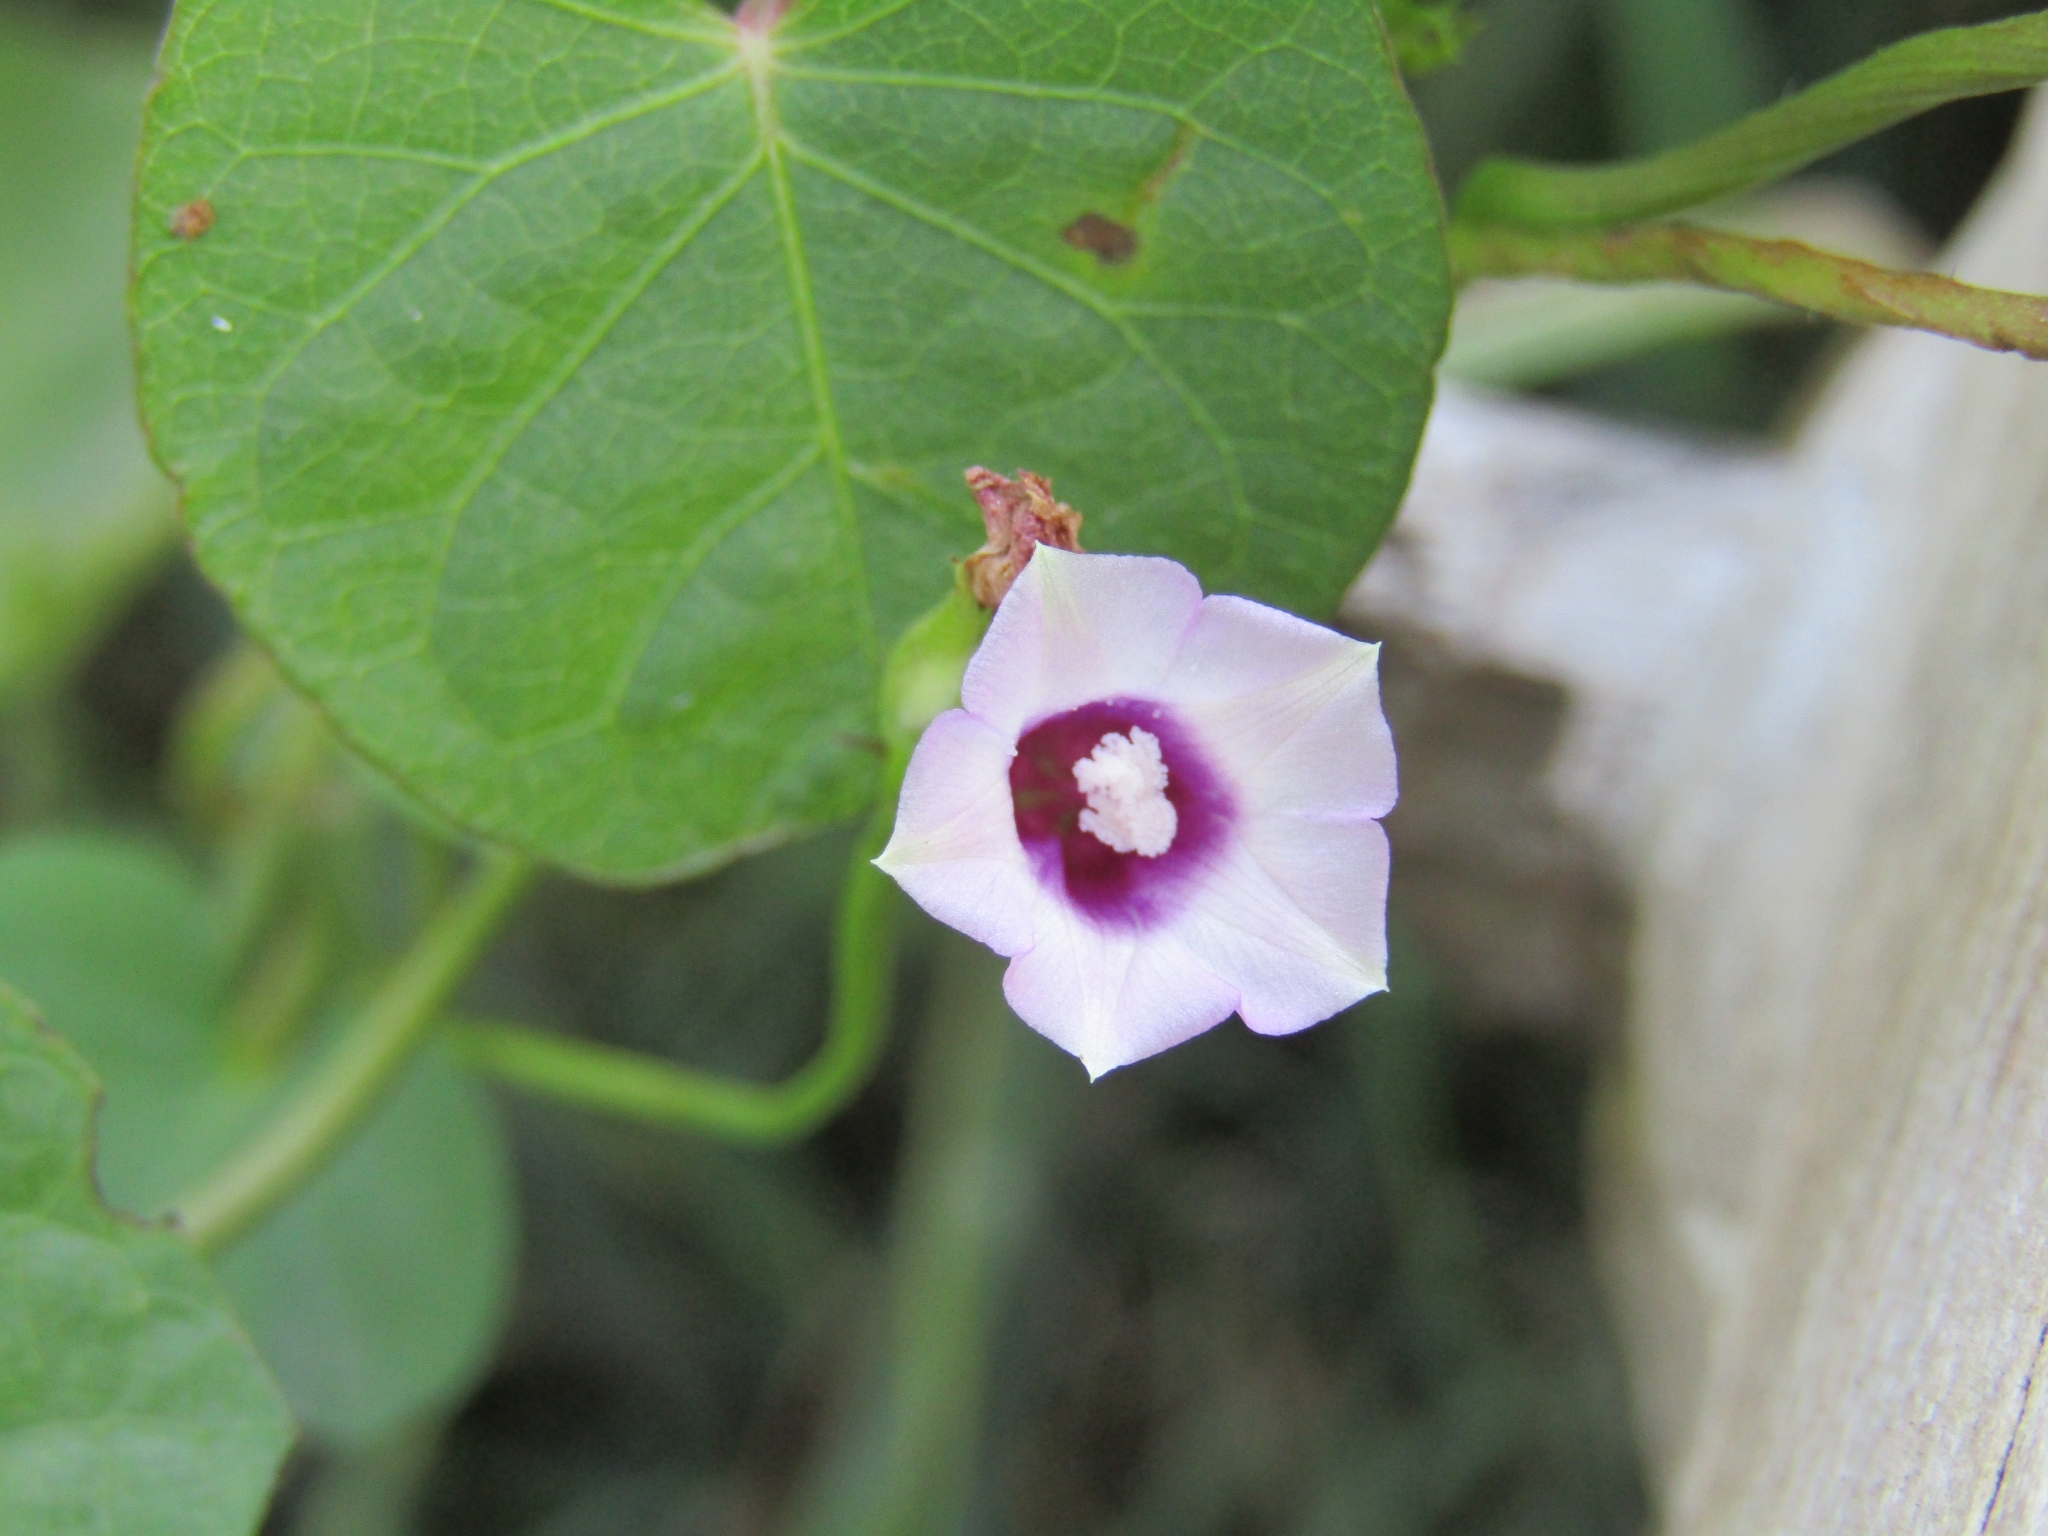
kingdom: Plantae
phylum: Tracheophyta
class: Magnoliopsida
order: Solanales
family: Convolvulaceae
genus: Ipomoea
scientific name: Ipomoea grandifolia
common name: Aiea morning glory
